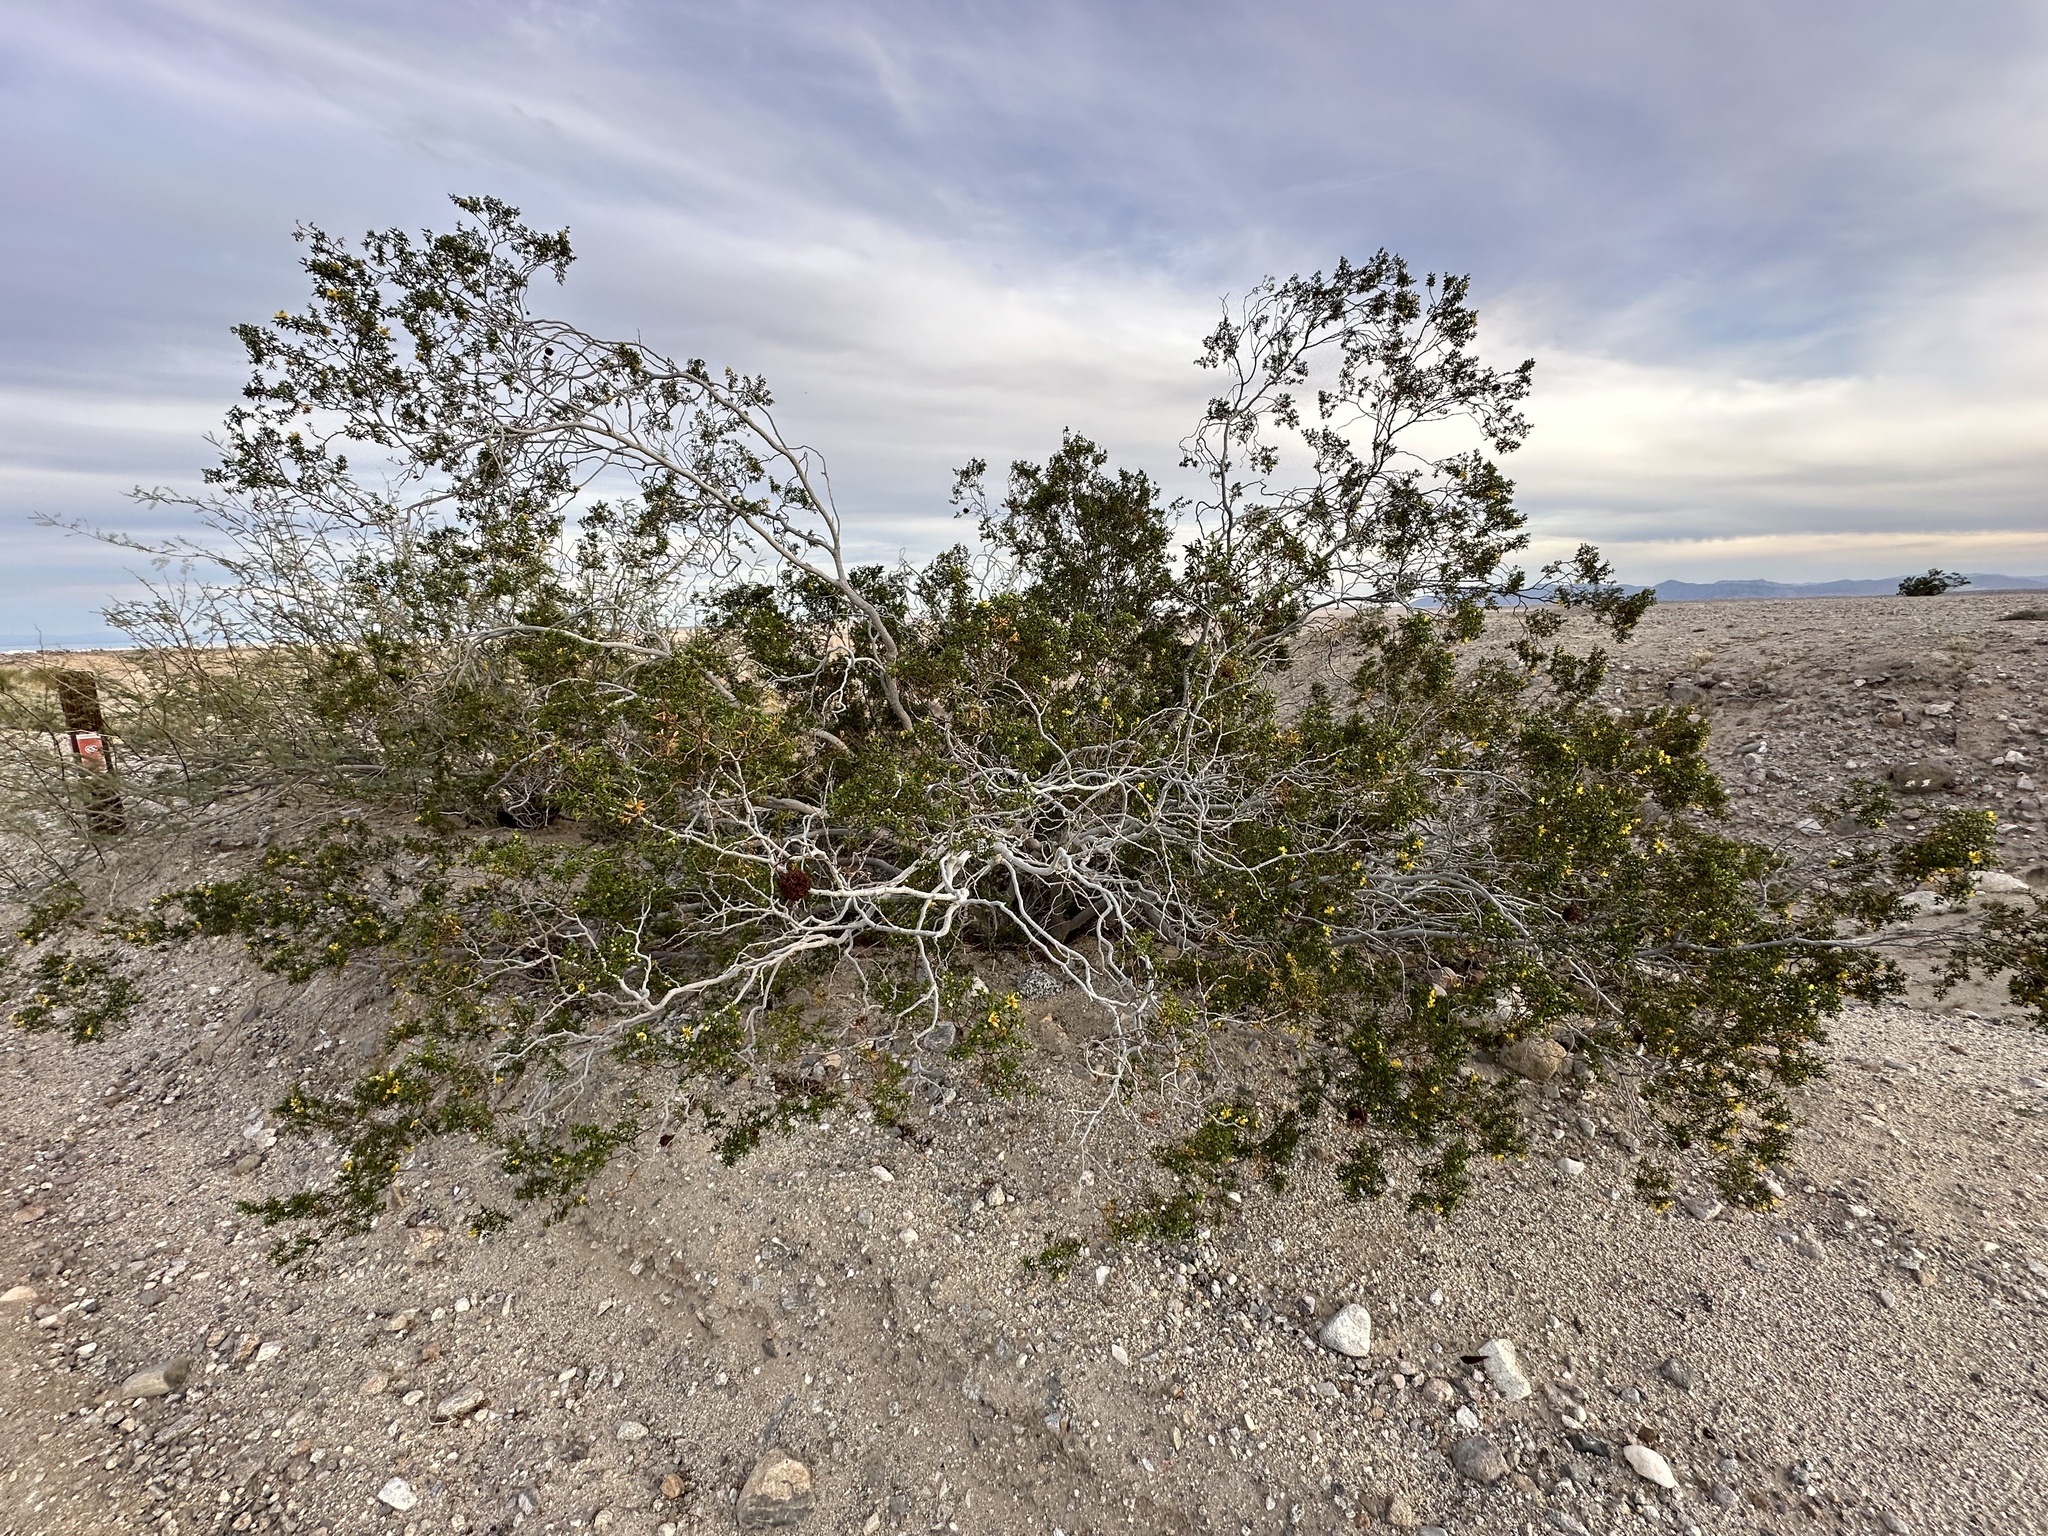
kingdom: Plantae
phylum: Tracheophyta
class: Magnoliopsida
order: Zygophyllales
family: Zygophyllaceae
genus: Larrea
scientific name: Larrea tridentata
